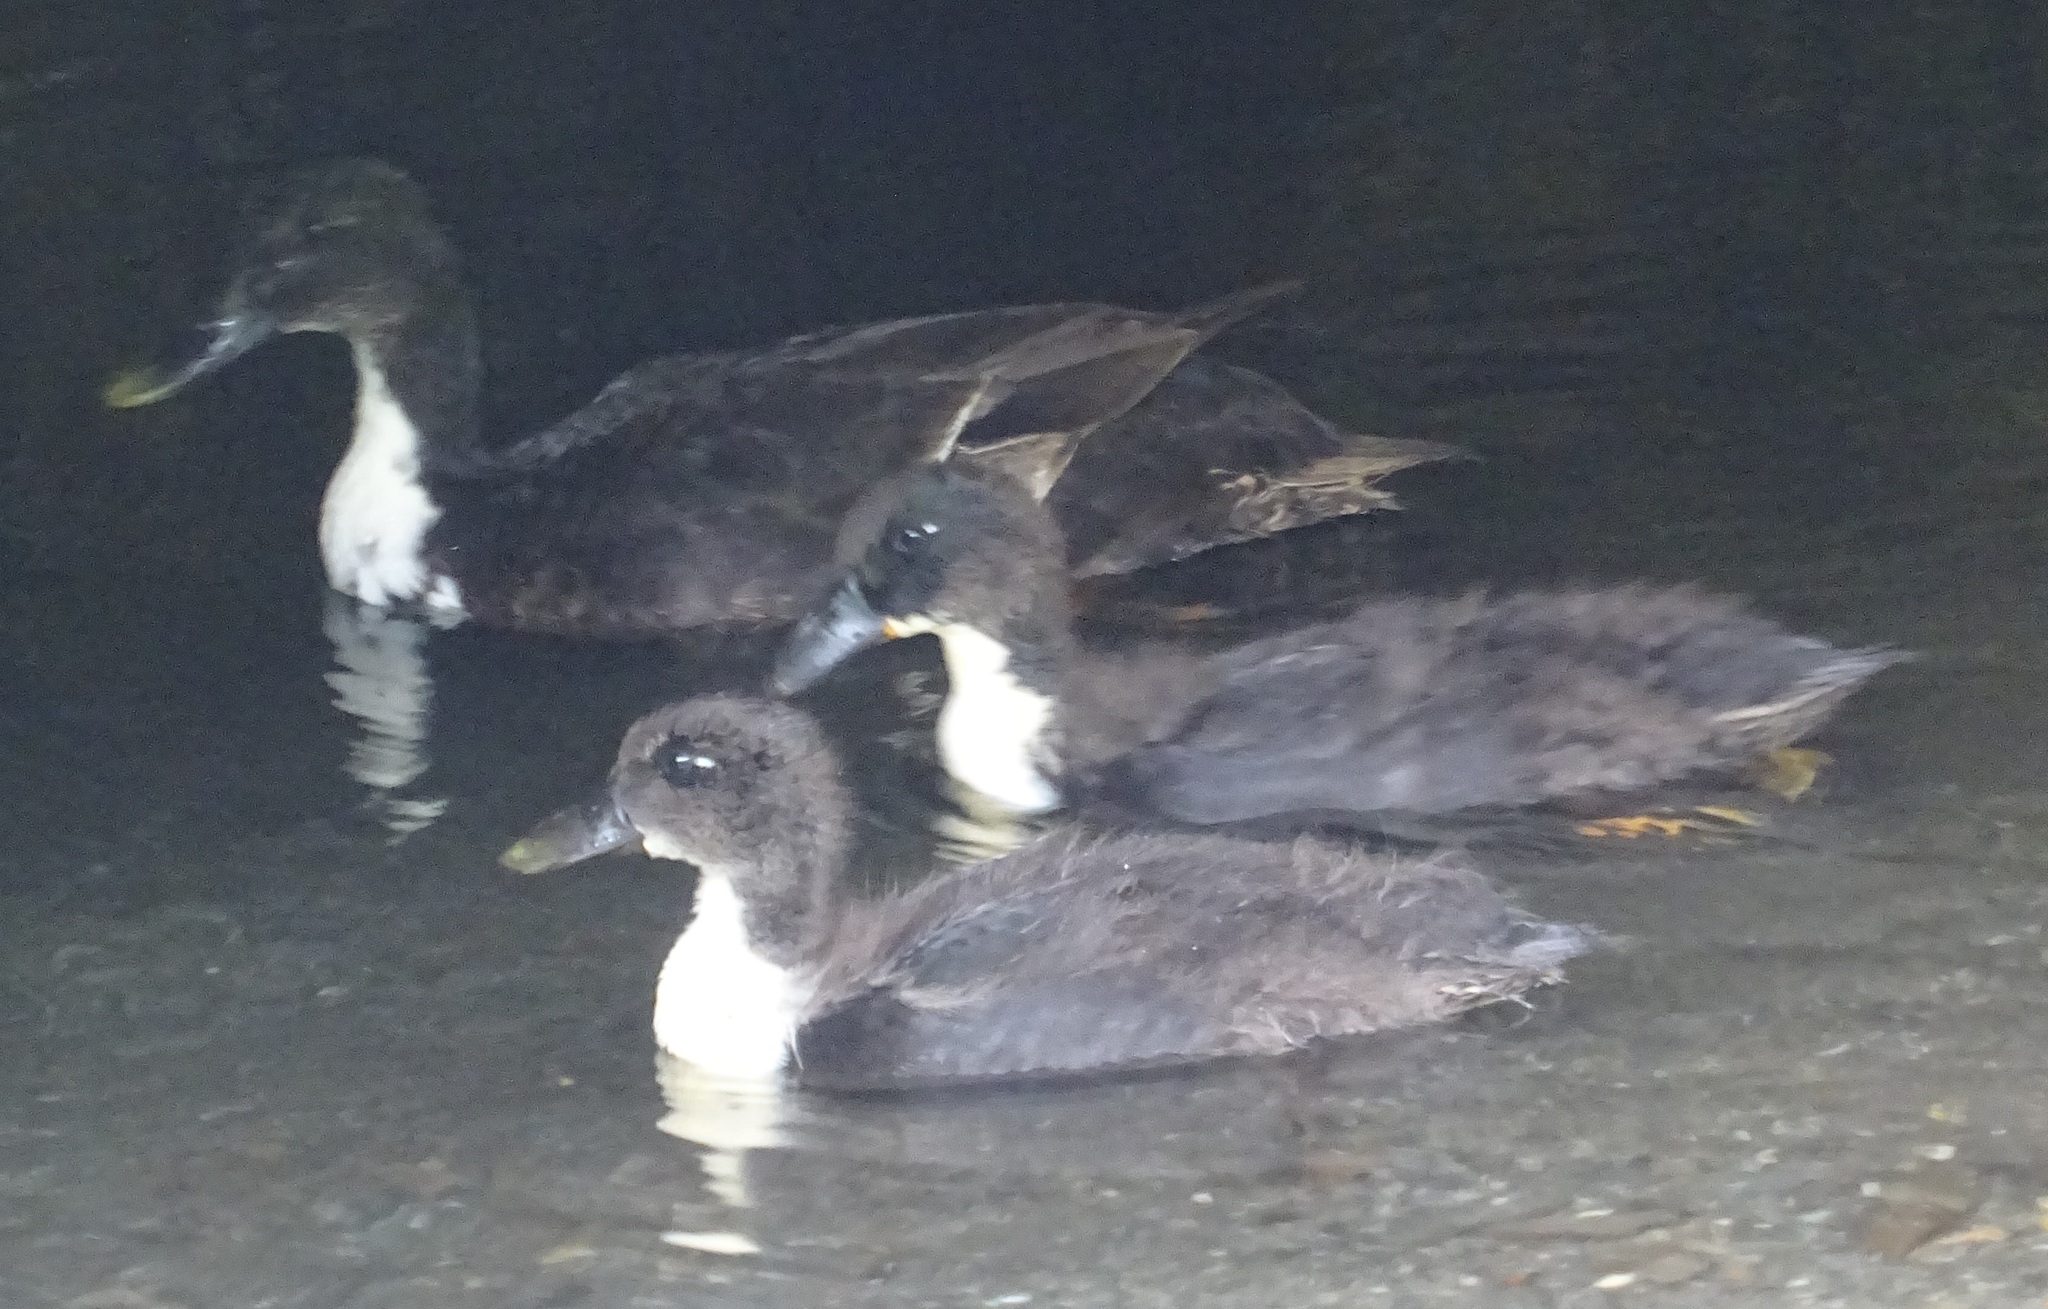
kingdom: Animalia
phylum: Chordata
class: Aves
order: Anseriformes
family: Anatidae
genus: Anas
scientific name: Anas platyrhynchos
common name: Mallard
